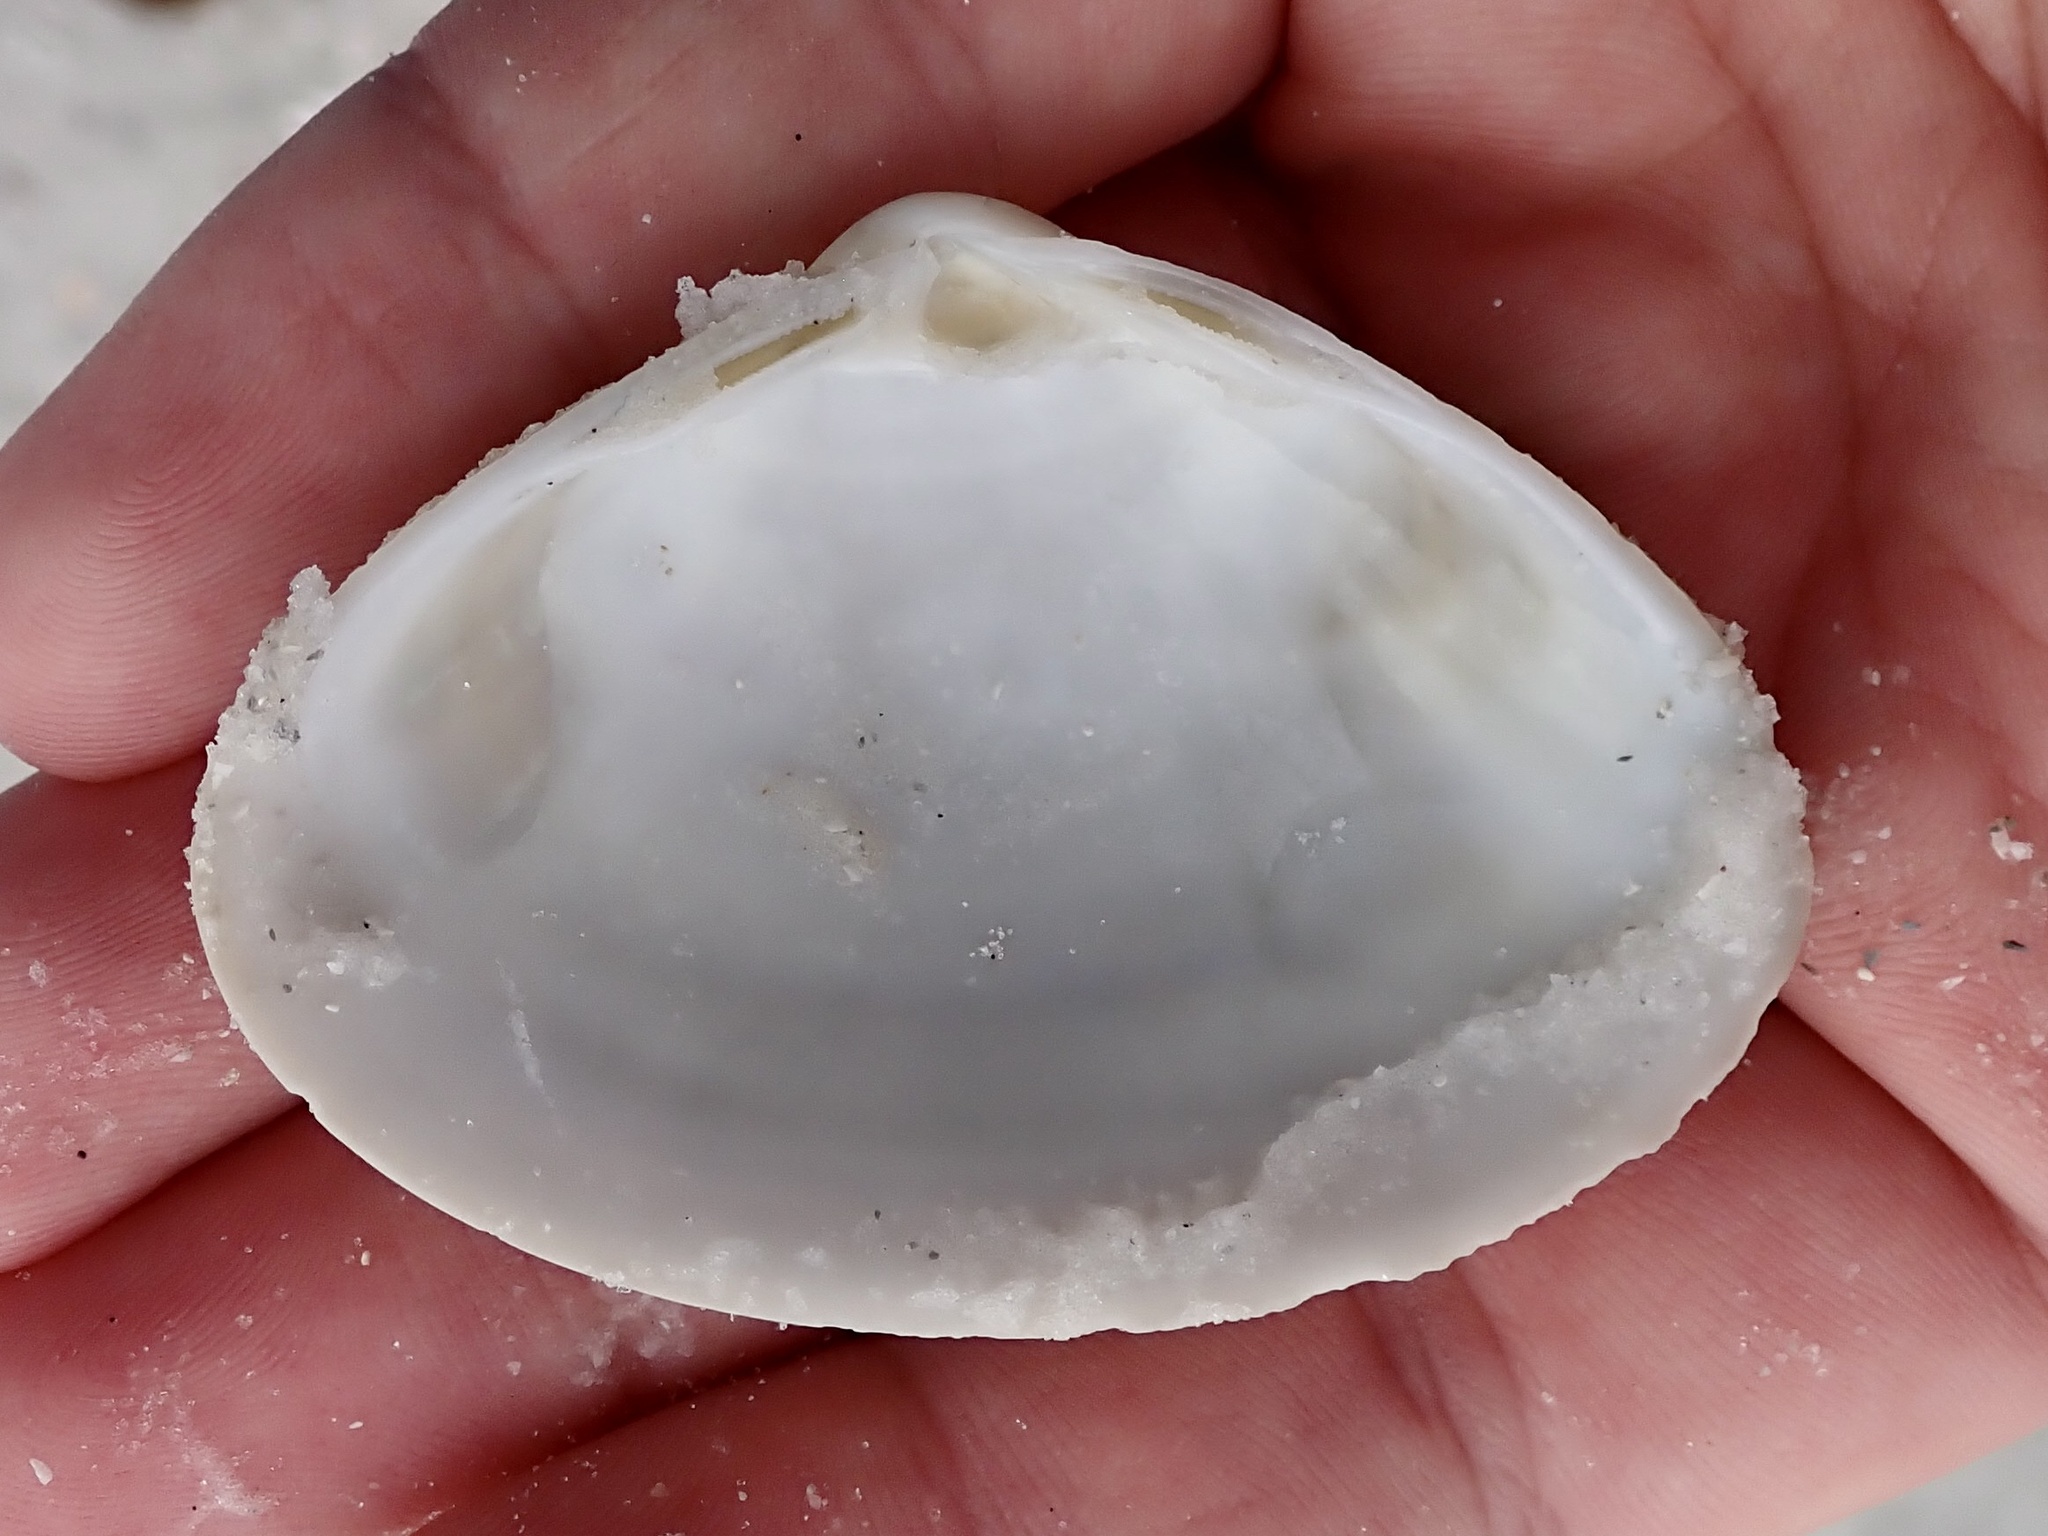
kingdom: Animalia
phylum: Mollusca
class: Bivalvia
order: Venerida
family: Mactridae
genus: Spisula
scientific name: Spisula raveneli
